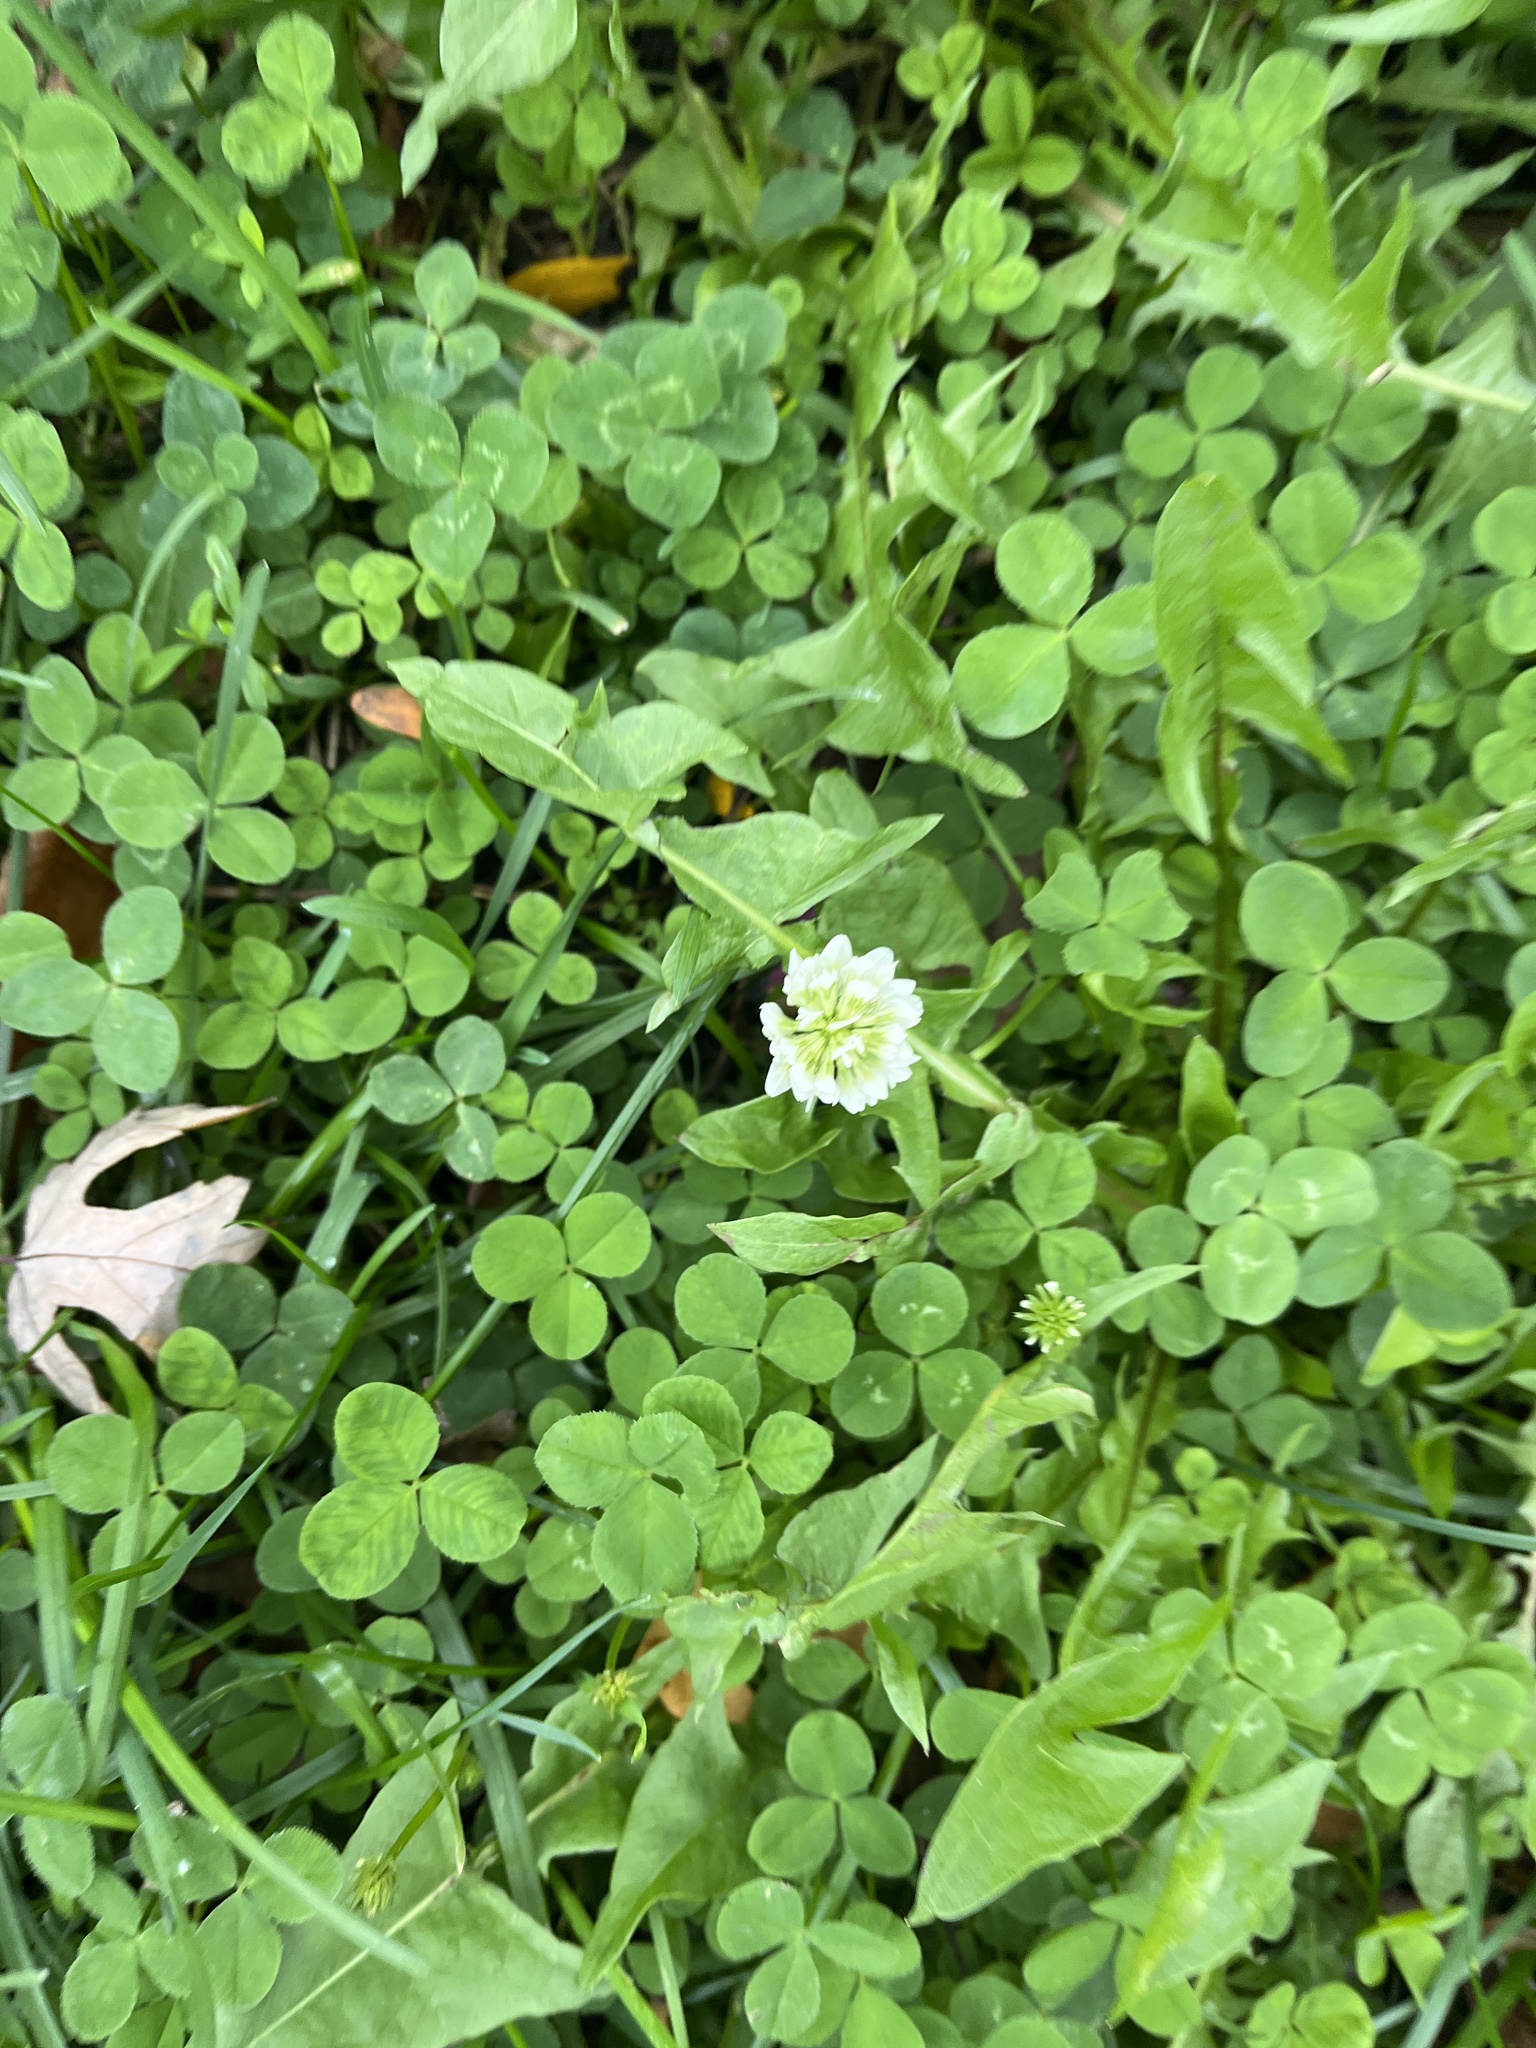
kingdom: Plantae
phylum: Tracheophyta
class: Magnoliopsida
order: Fabales
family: Fabaceae
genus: Trifolium
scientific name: Trifolium repens
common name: White clover
